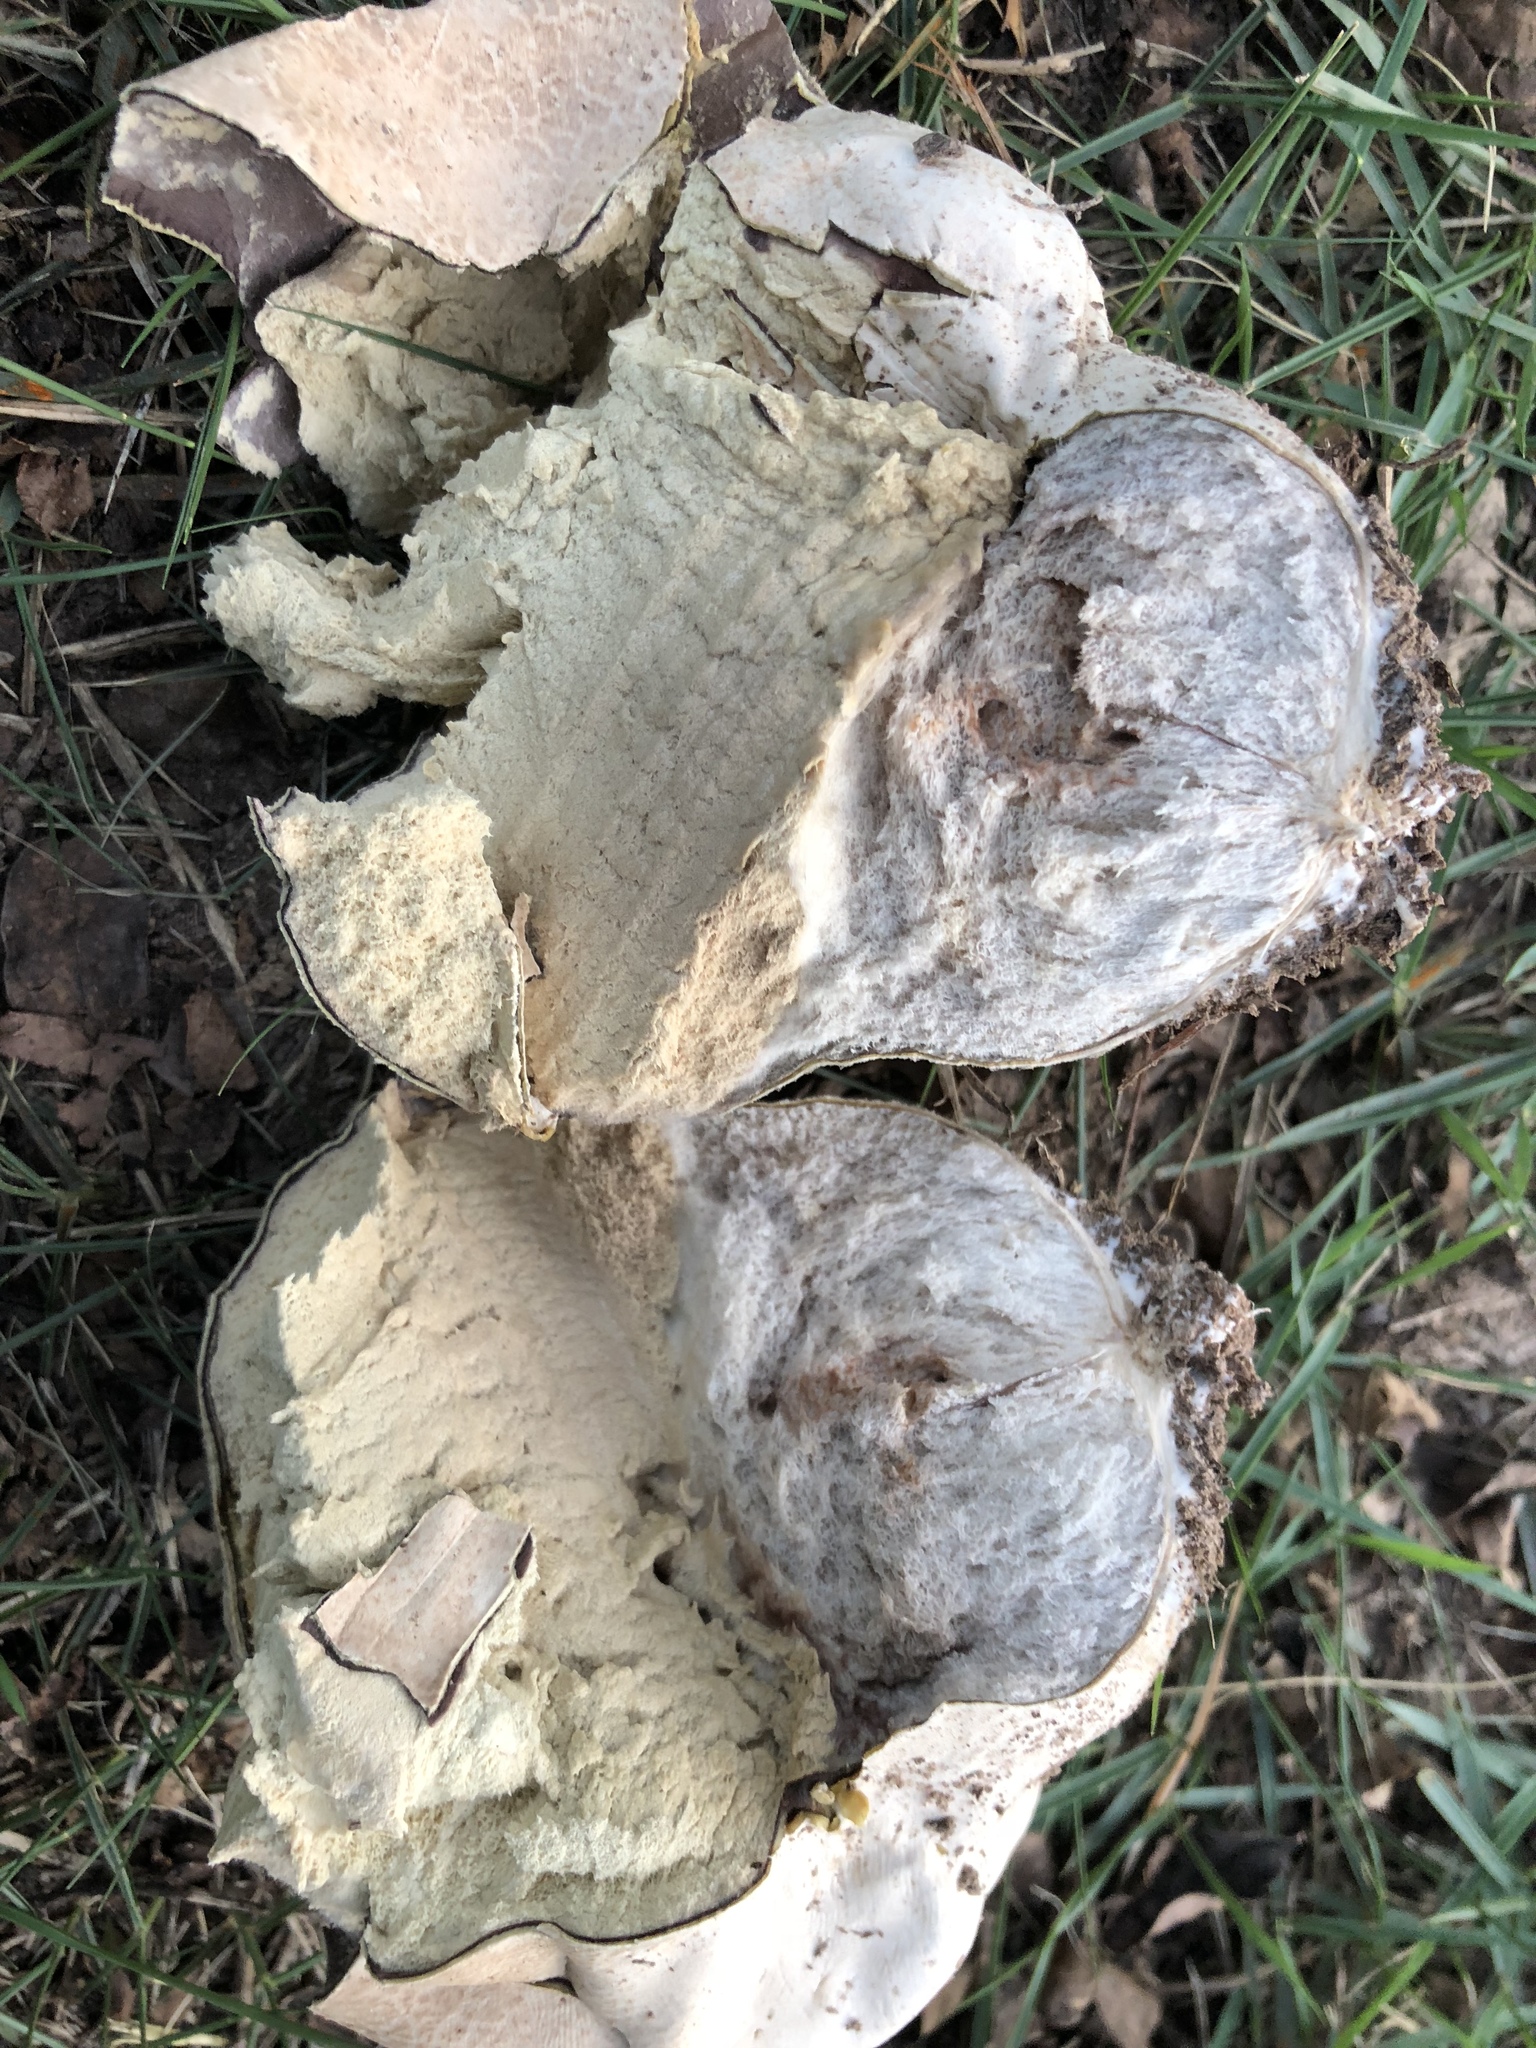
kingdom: Fungi
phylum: Basidiomycota
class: Agaricomycetes
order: Agaricales
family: Lycoperdaceae
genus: Calvatia
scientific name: Calvatia cyathiformis
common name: Purple-spored puffball
